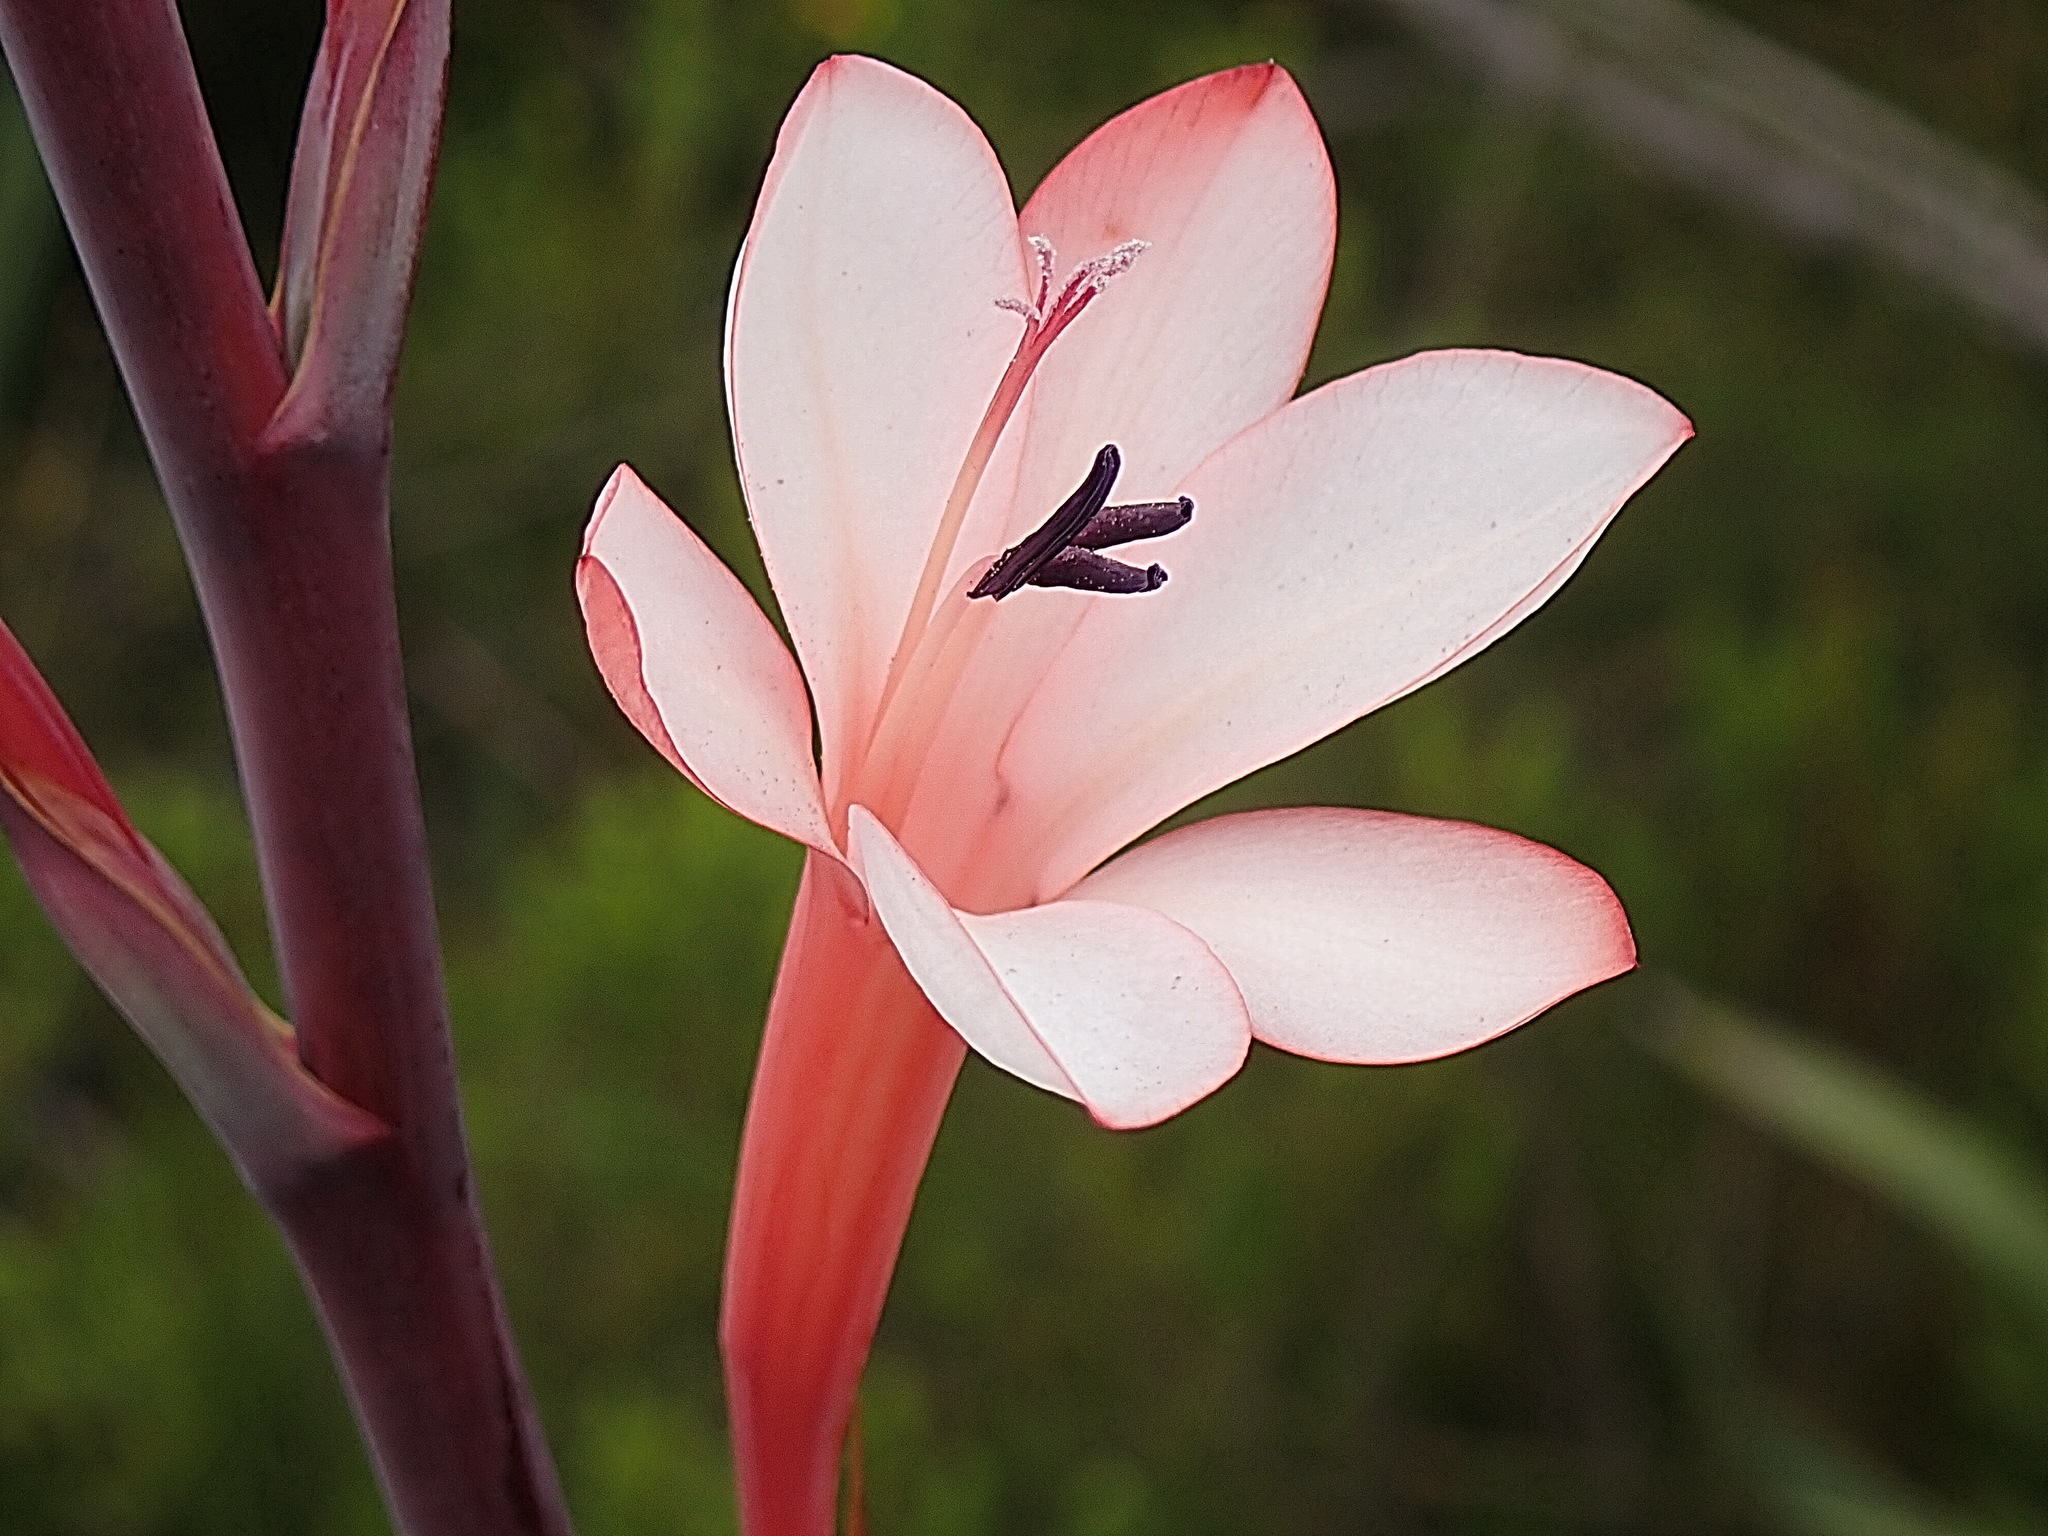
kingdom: Plantae
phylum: Tracheophyta
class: Liliopsida
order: Asparagales
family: Iridaceae
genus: Watsonia
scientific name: Watsonia fourcadei
